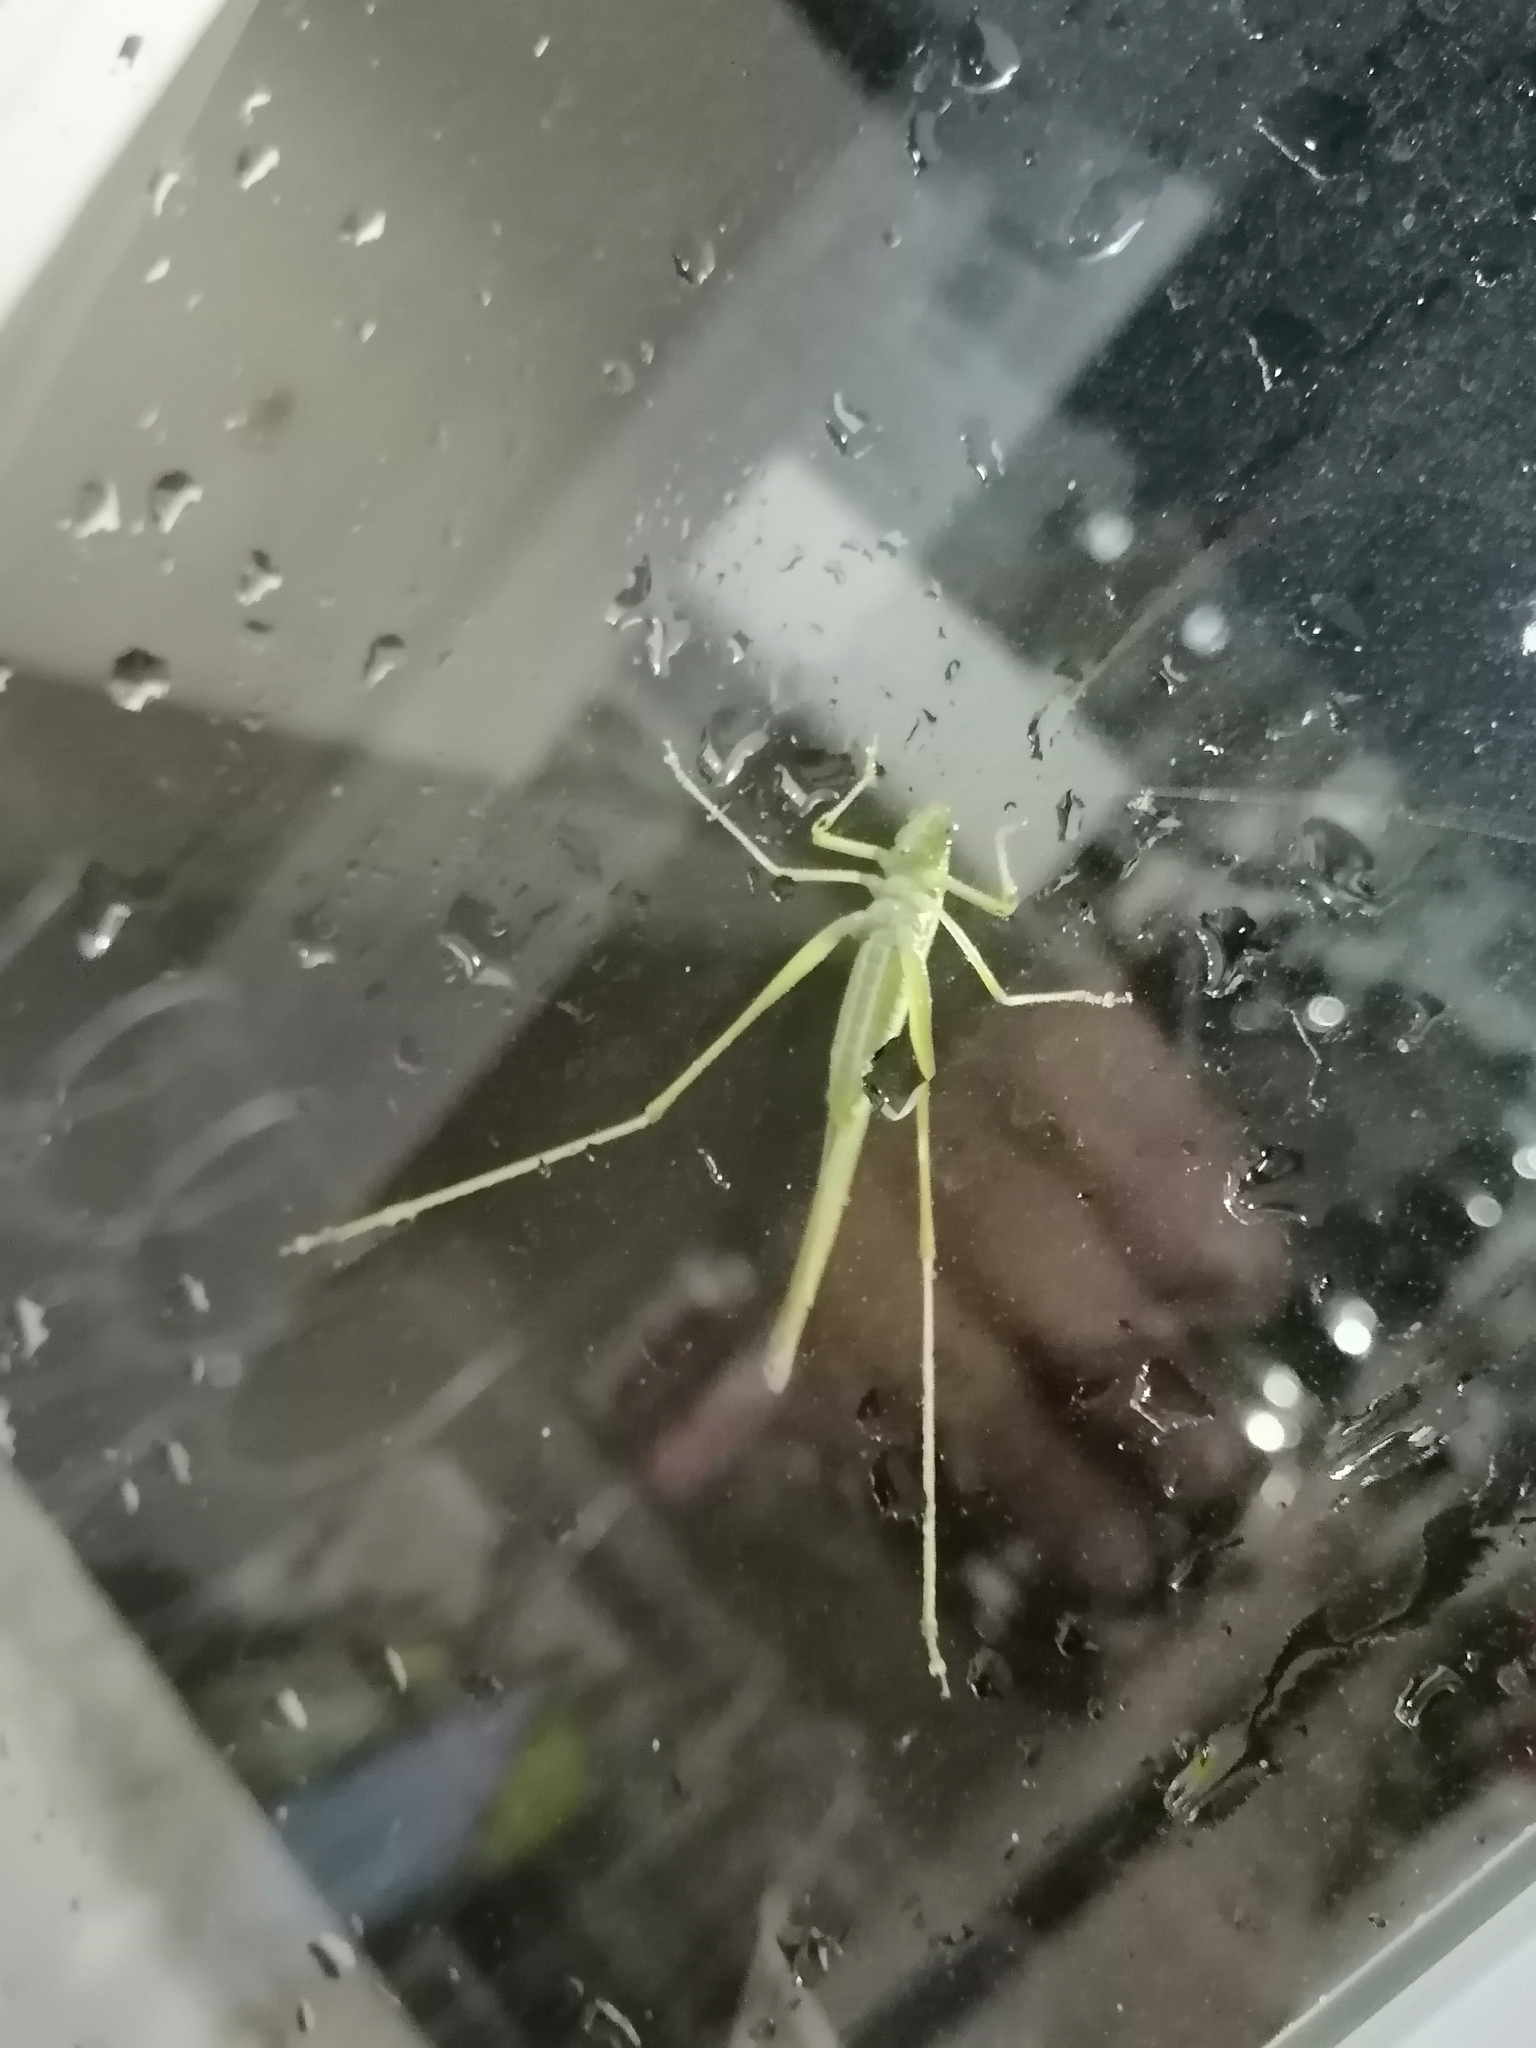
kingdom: Animalia
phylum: Arthropoda
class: Insecta
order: Orthoptera
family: Tettigoniidae
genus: Scudderia
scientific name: Scudderia mexicana
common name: Mexican bush katydid
